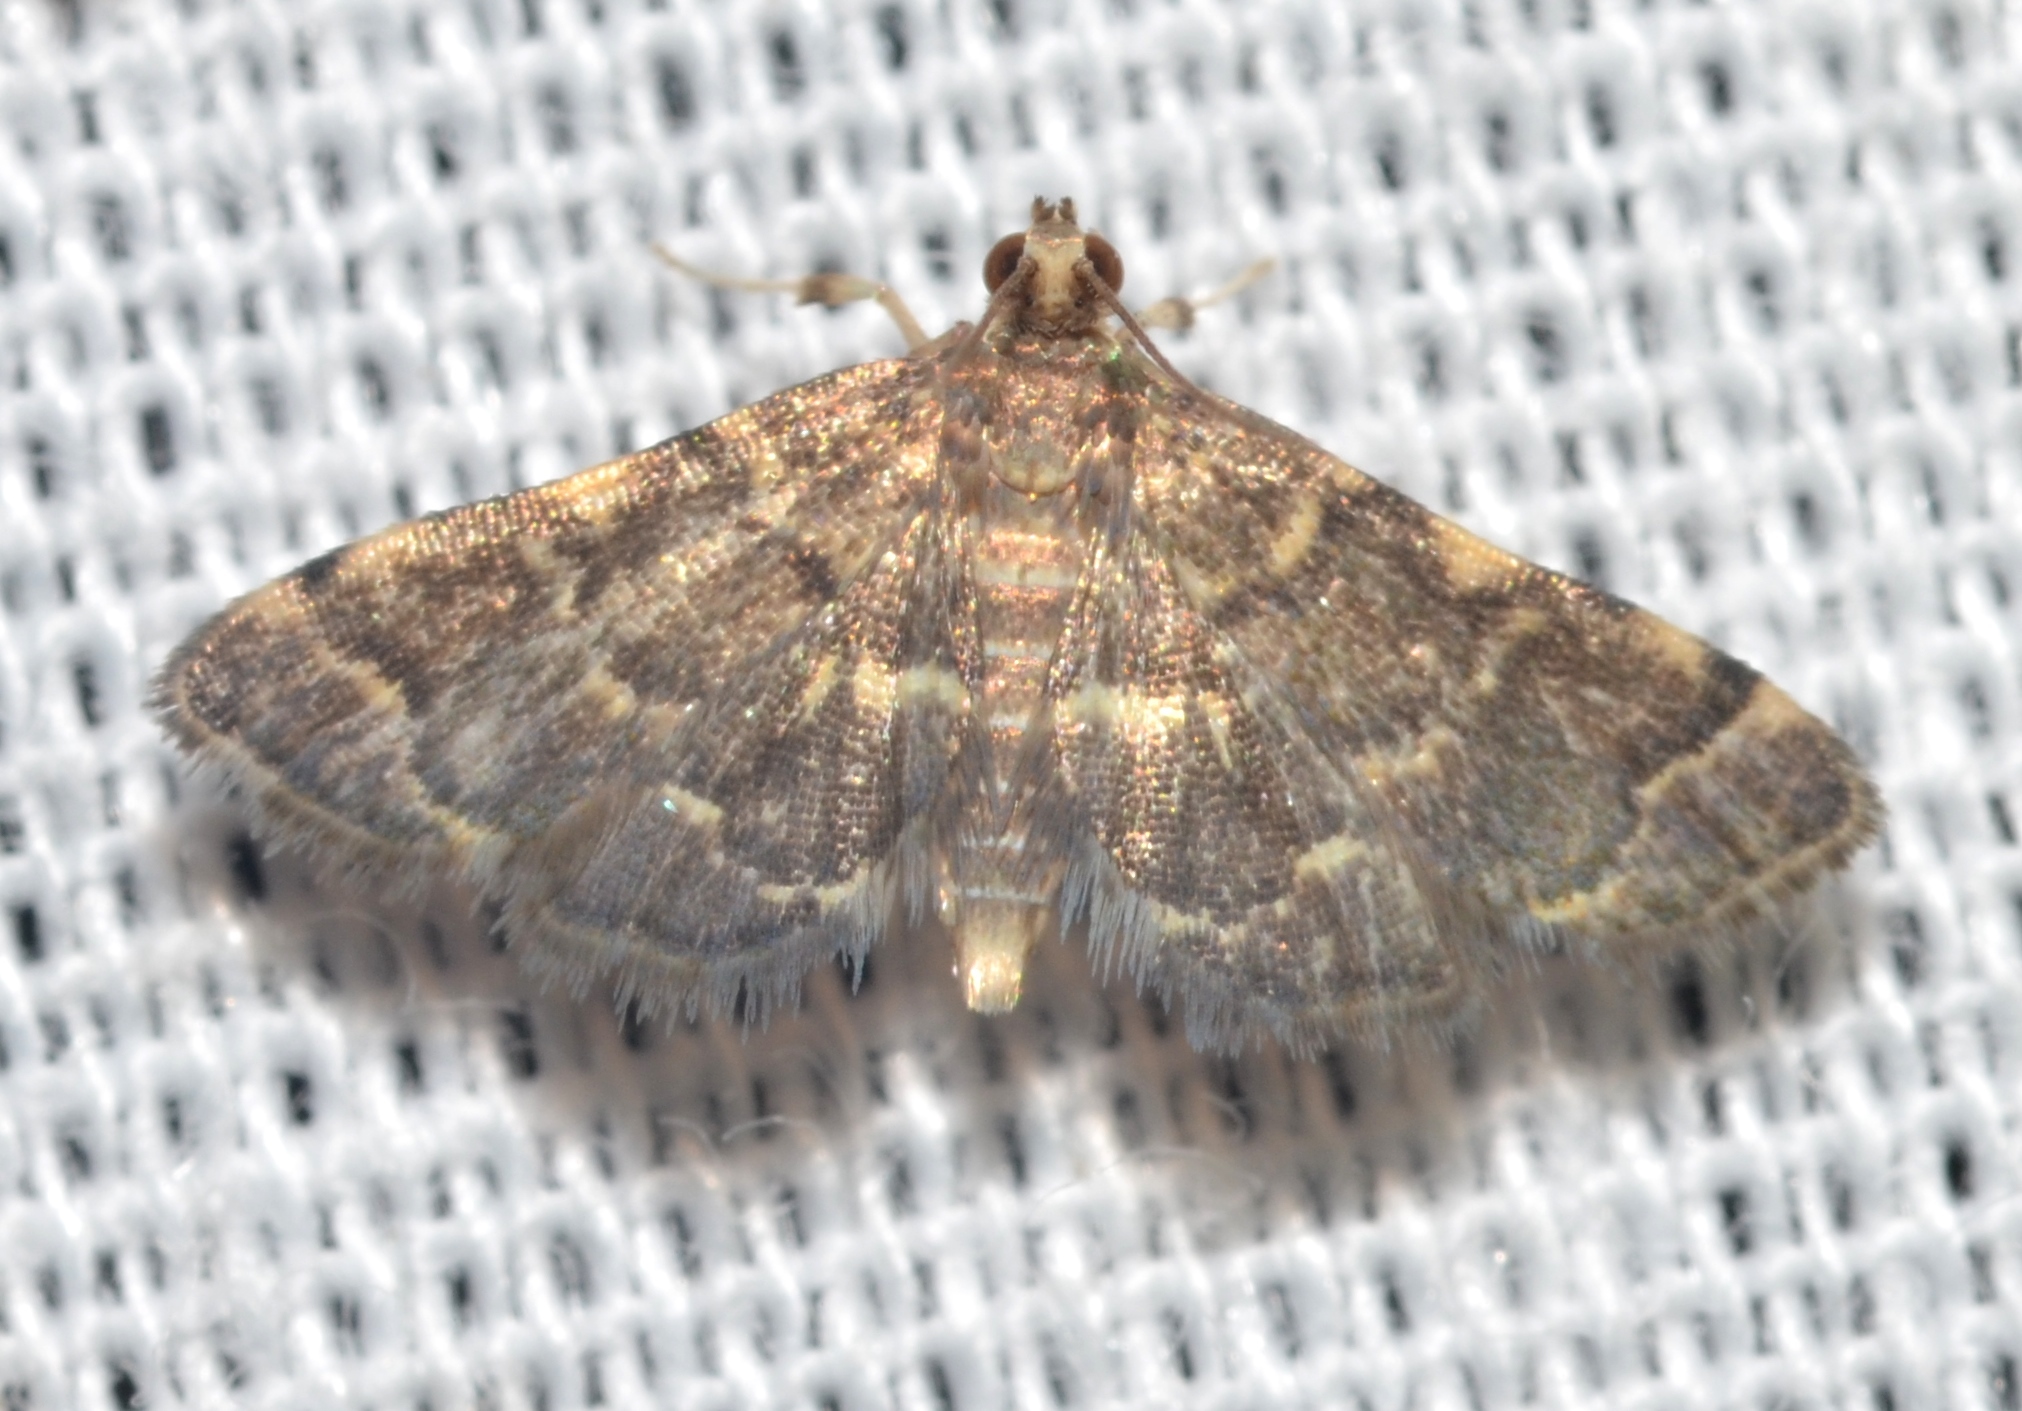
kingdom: Animalia
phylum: Arthropoda
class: Insecta
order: Lepidoptera
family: Crambidae
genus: Anageshna
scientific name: Anageshna primordialis
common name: Yellow-spotted webworm moth
